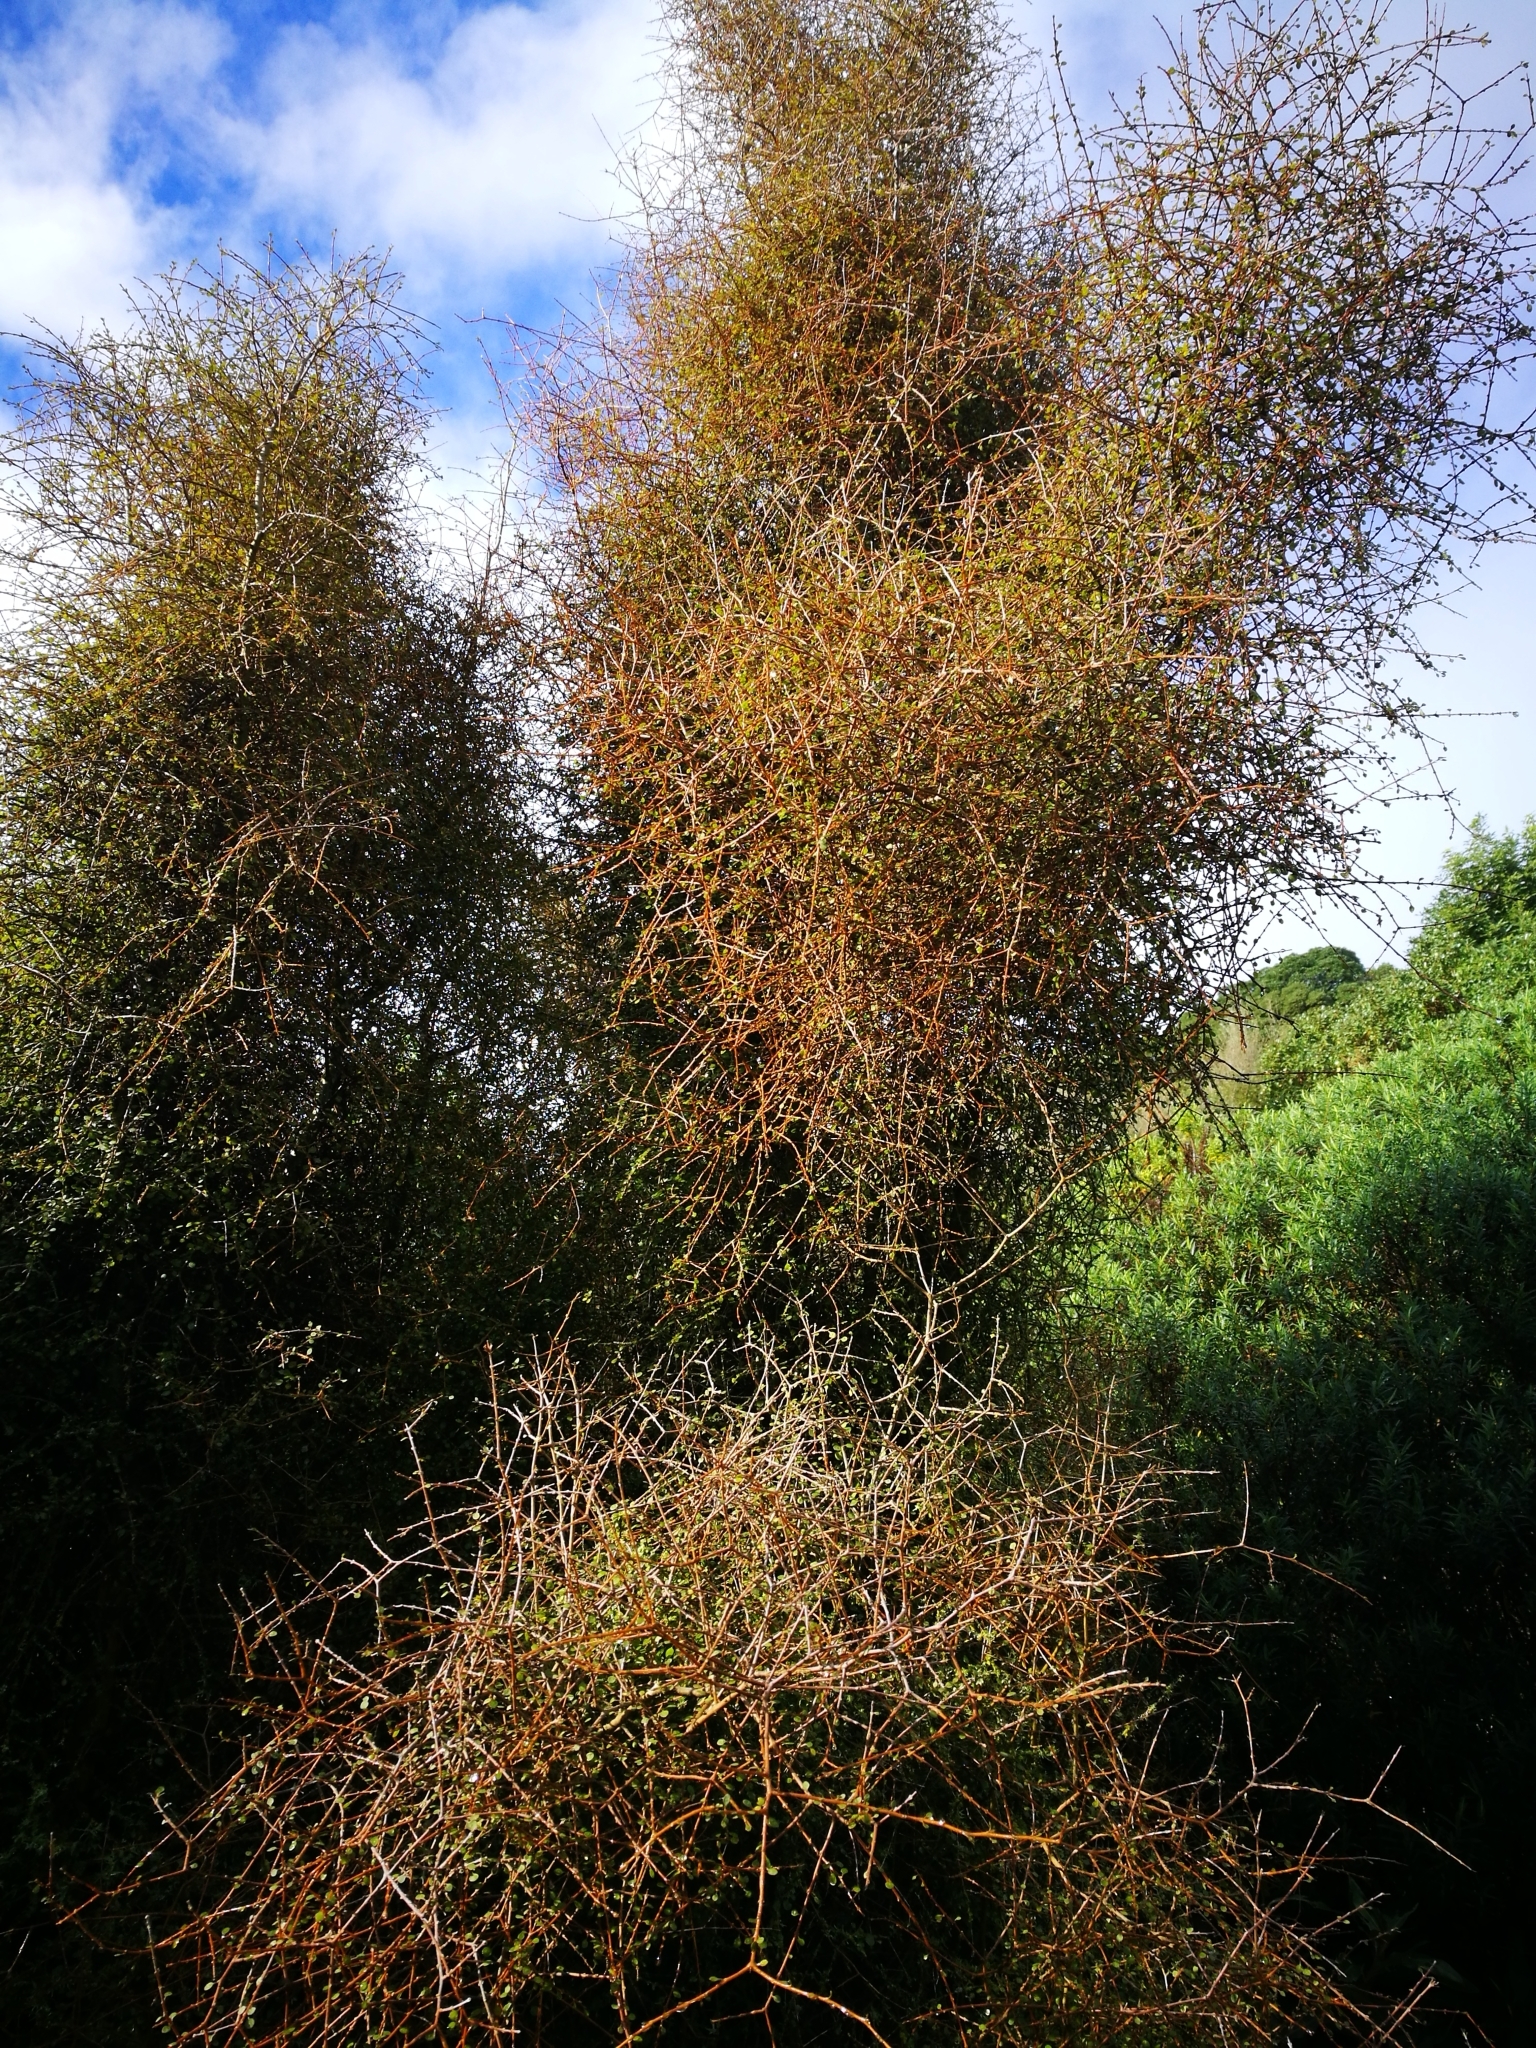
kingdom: Plantae
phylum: Tracheophyta
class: Magnoliopsida
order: Gentianales
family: Rubiaceae
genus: Coprosma
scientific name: Coprosma virescens
